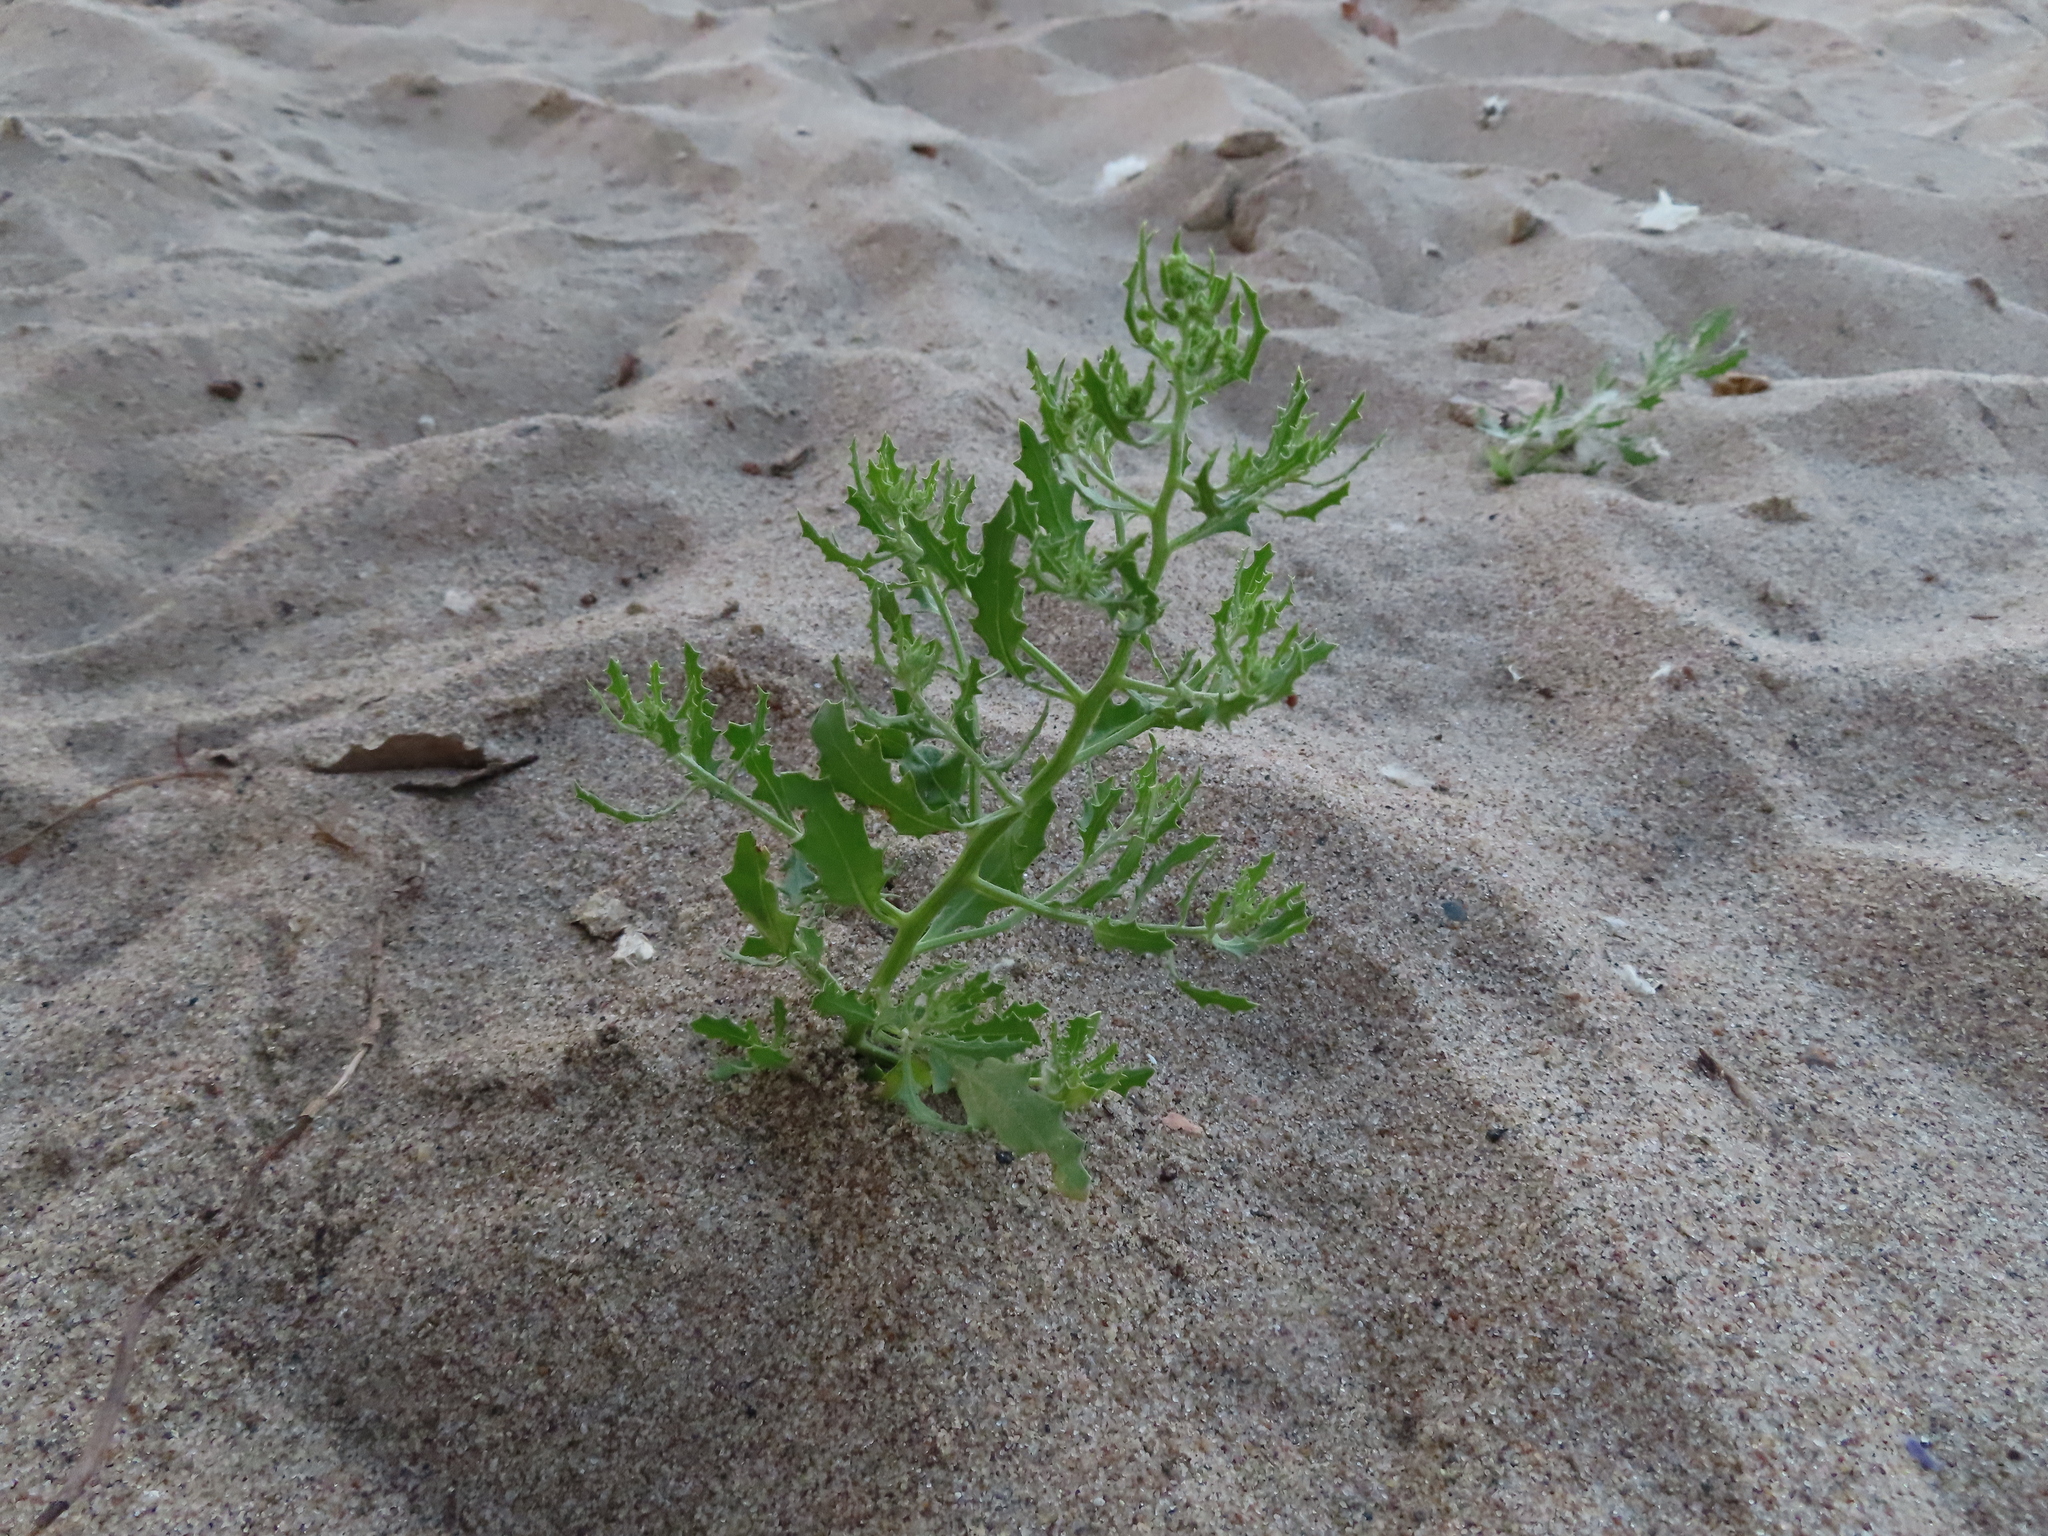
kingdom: Plantae
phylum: Tracheophyta
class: Magnoliopsida
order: Caryophyllales
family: Amaranthaceae
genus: Dysphania
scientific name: Dysphania atriplicifolia
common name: Plains tumbleweed
